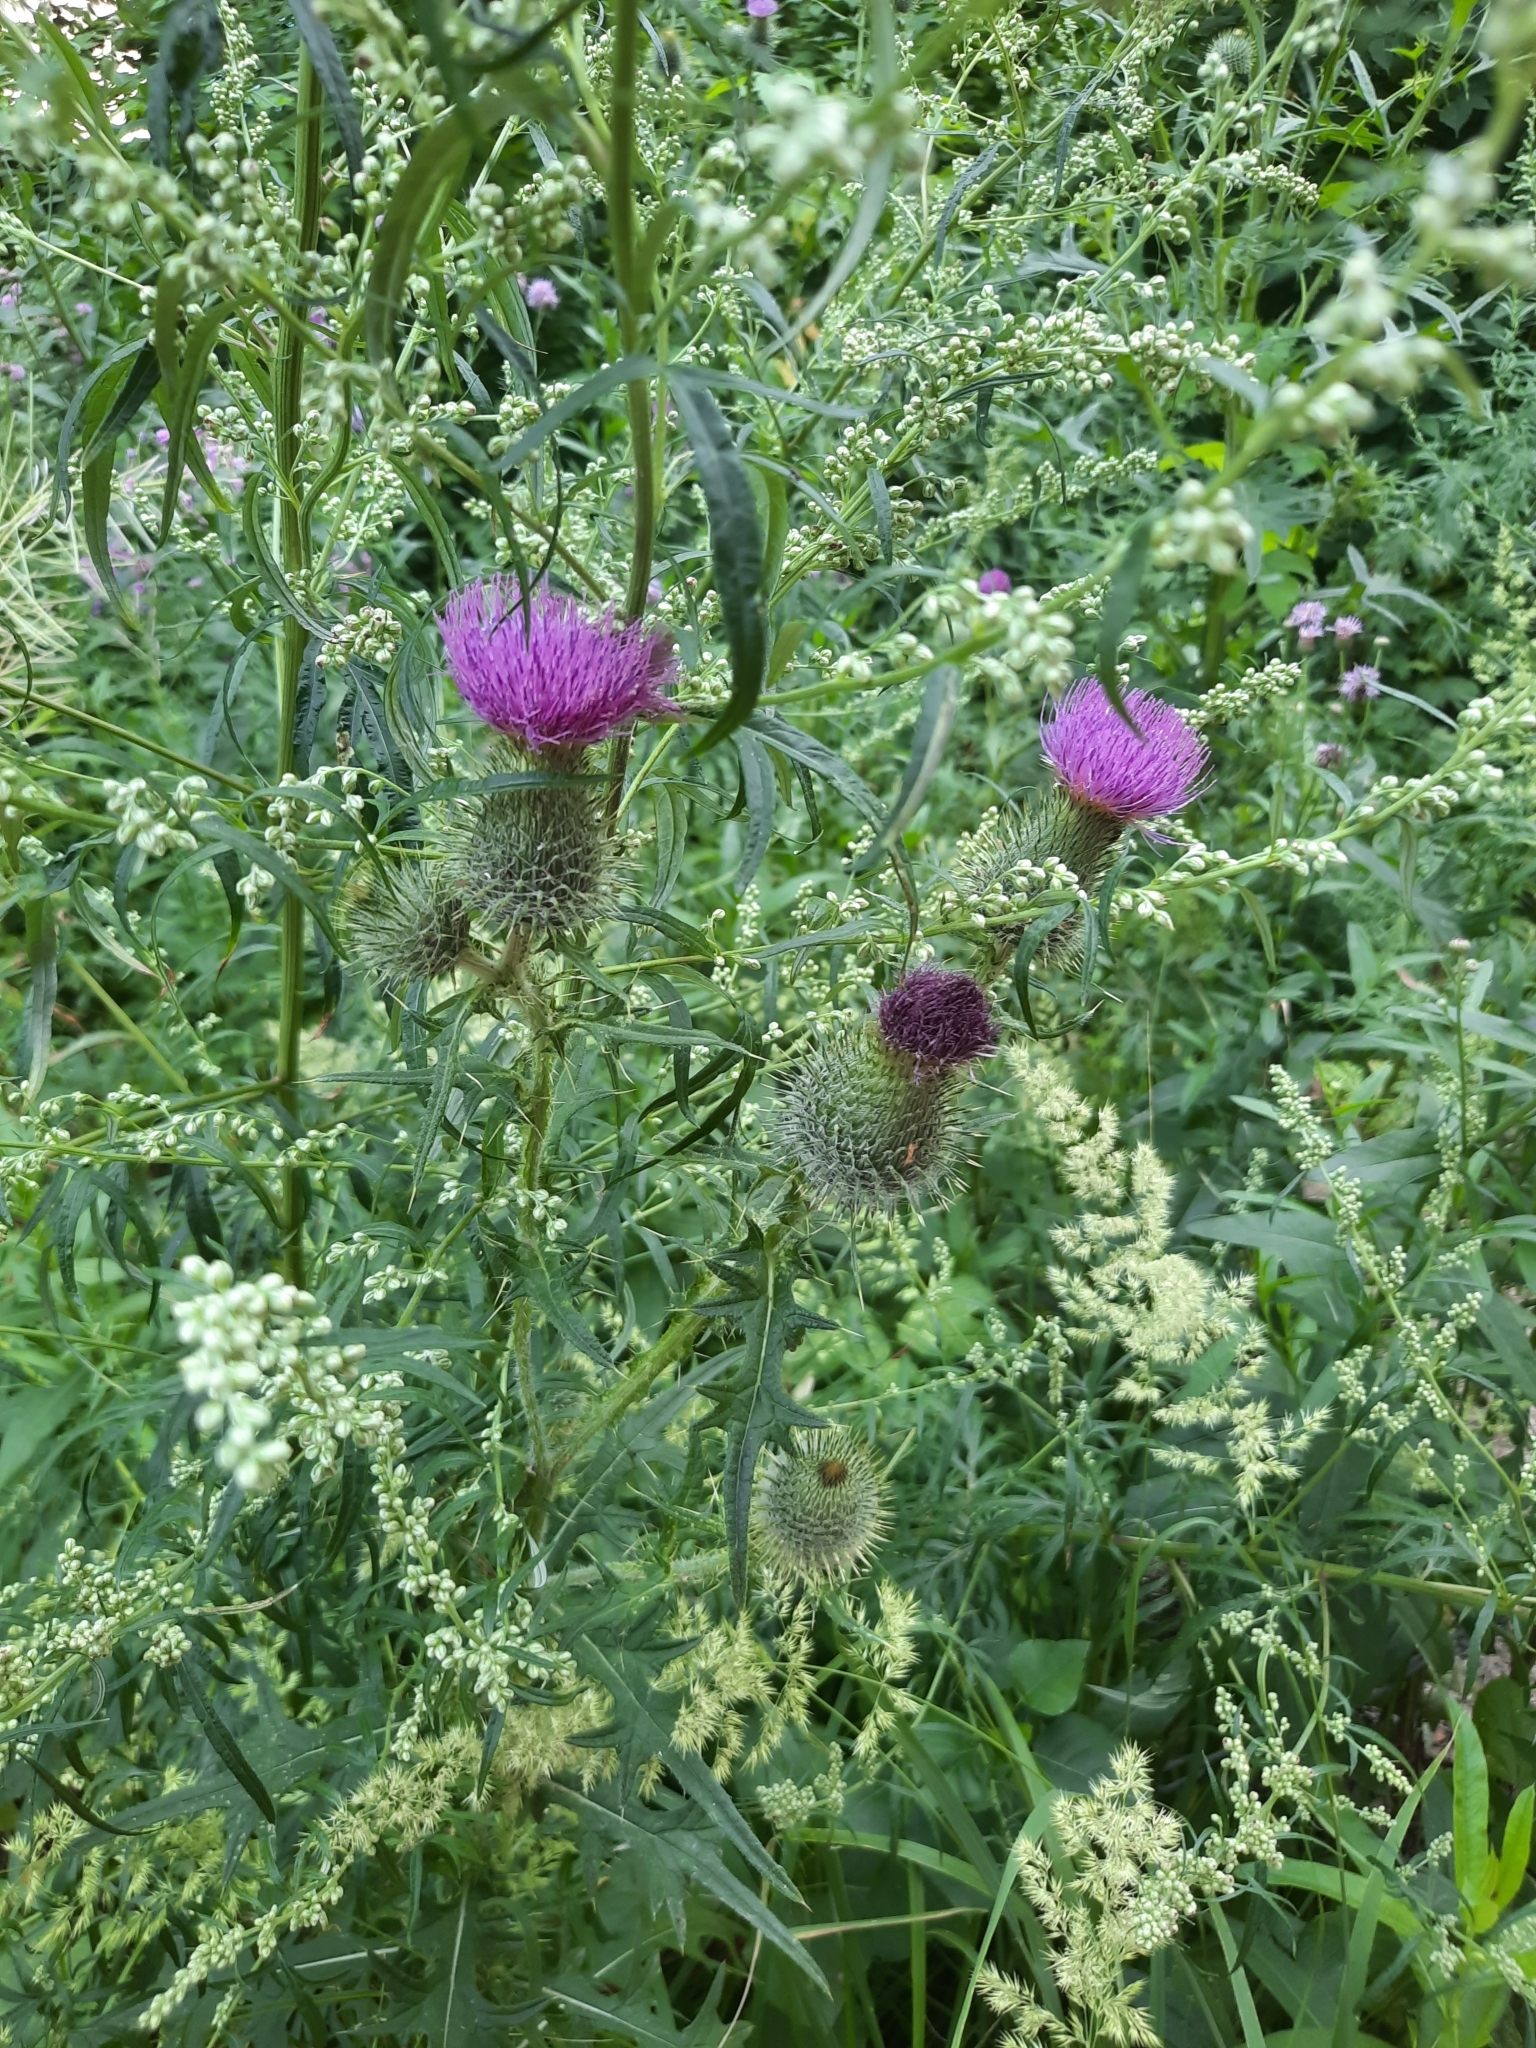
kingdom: Plantae
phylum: Tracheophyta
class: Magnoliopsida
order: Asterales
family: Asteraceae
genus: Cirsium
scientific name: Cirsium vulgare
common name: Bull thistle
